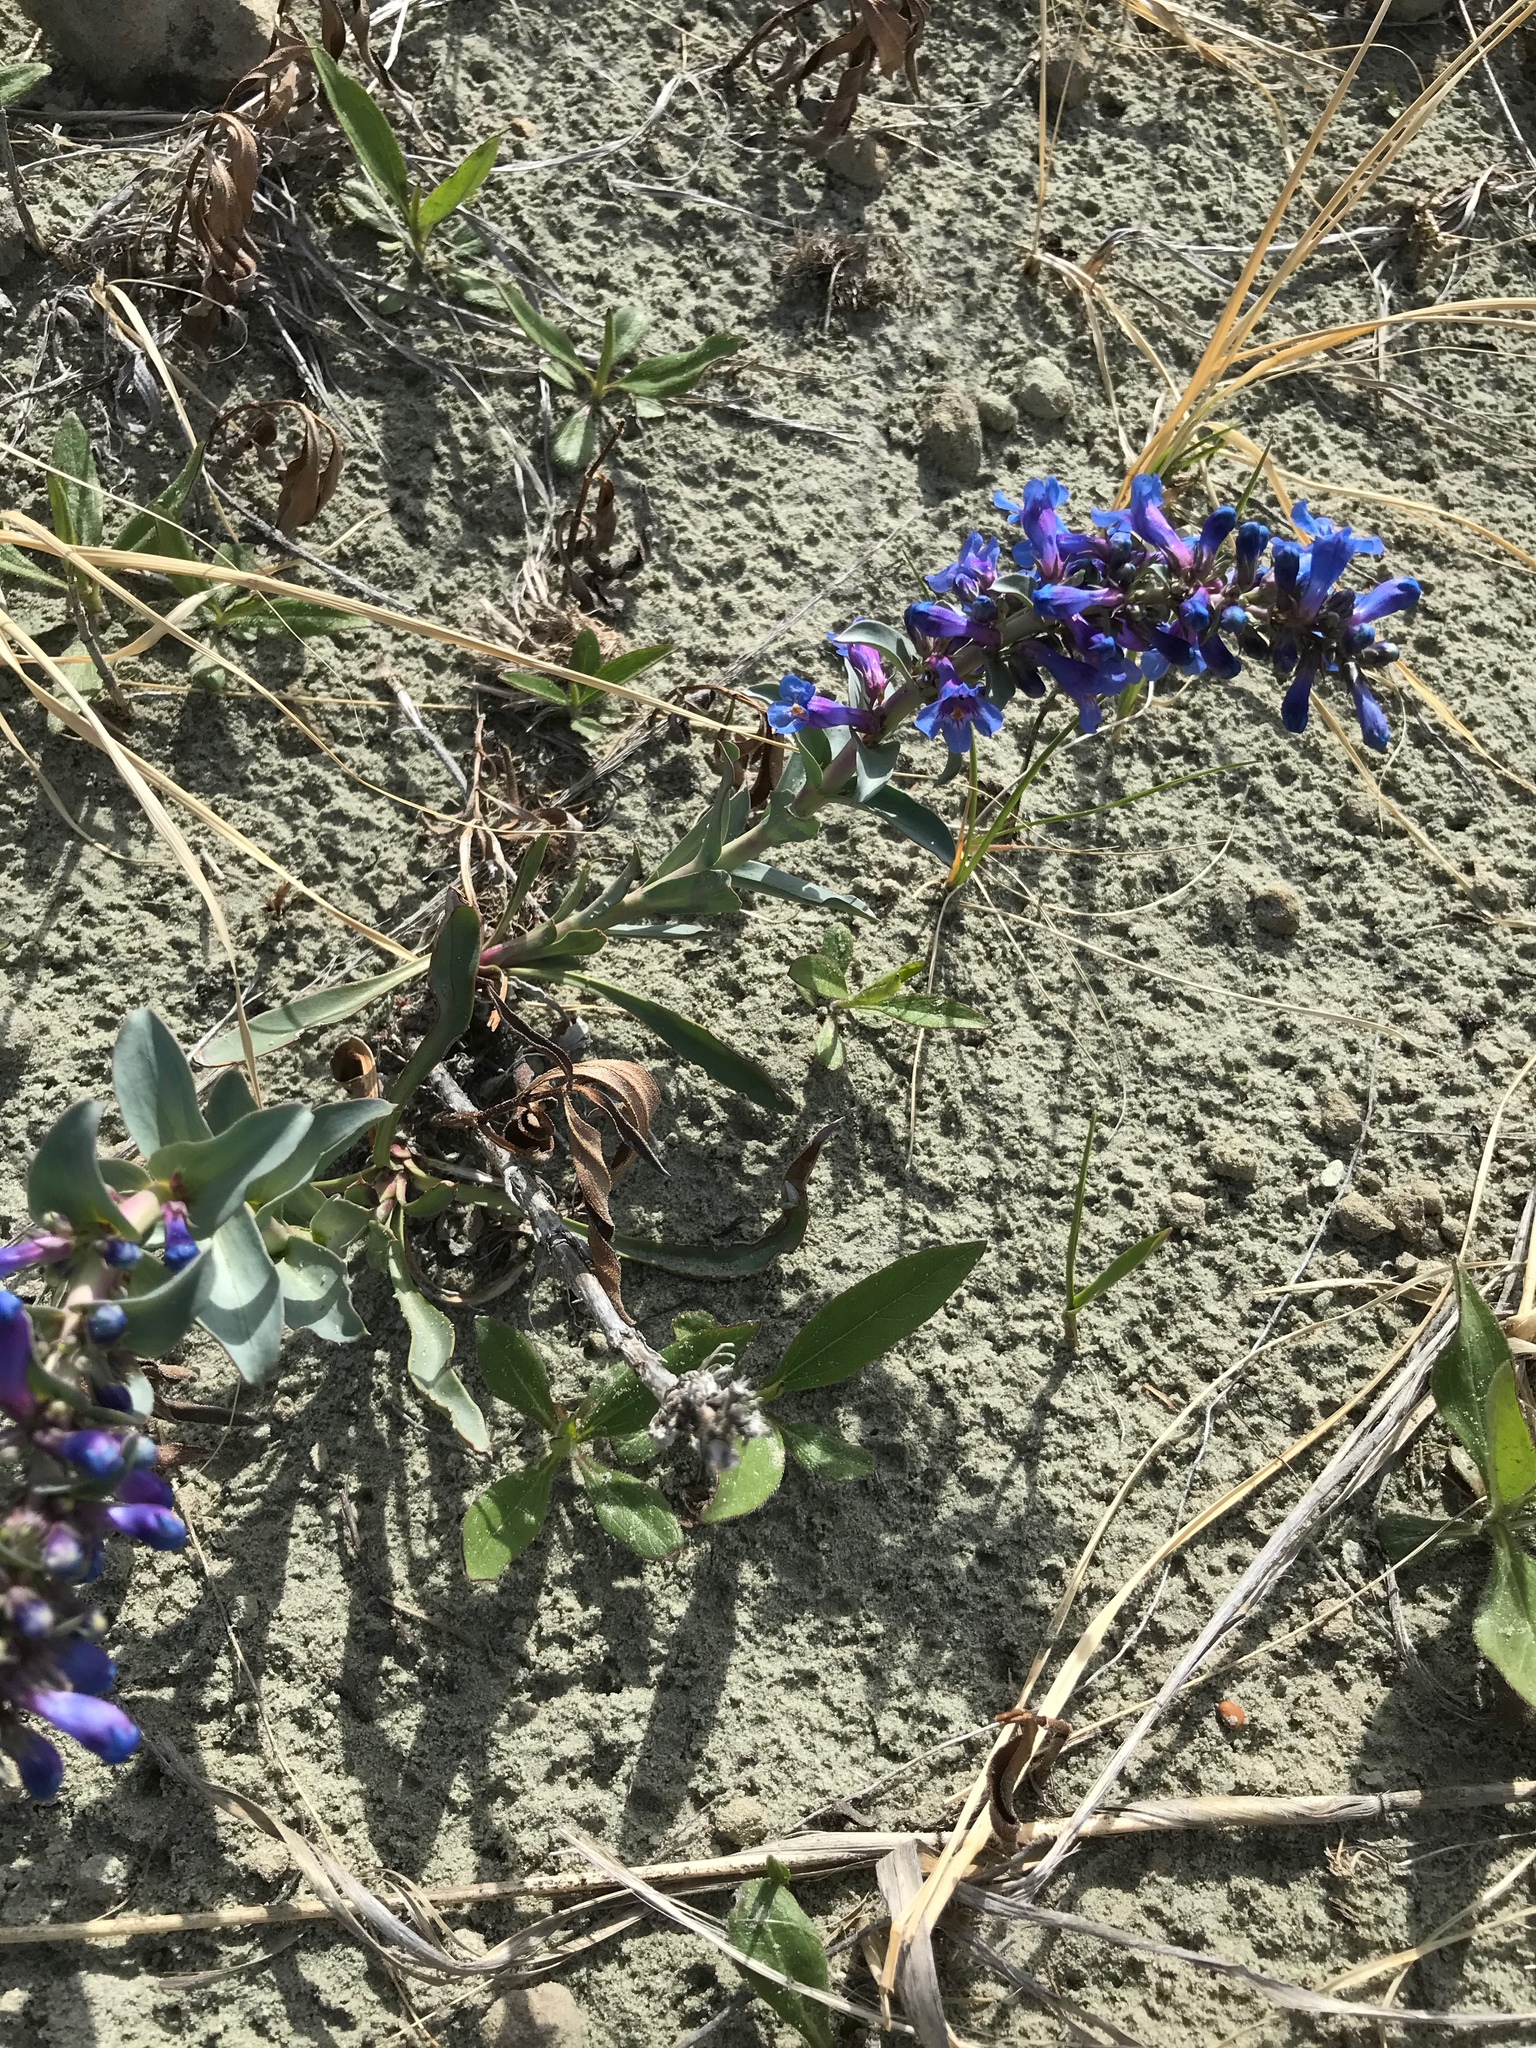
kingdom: Plantae
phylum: Tracheophyta
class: Magnoliopsida
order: Lamiales
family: Plantaginaceae
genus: Penstemon
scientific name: Penstemon nitidus
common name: Shining penstemon
